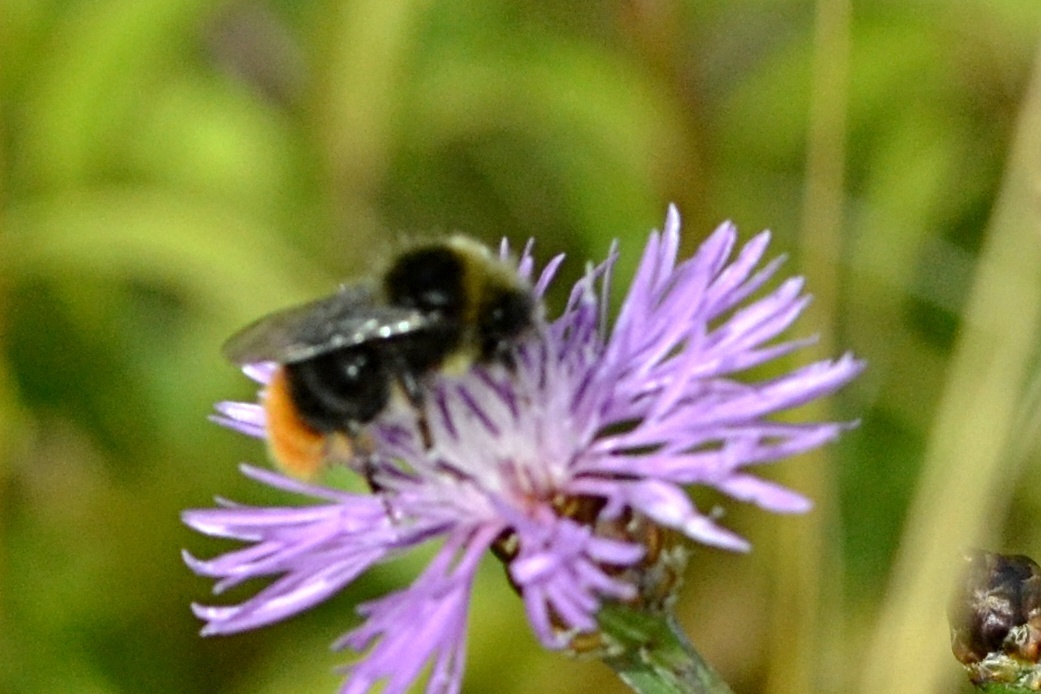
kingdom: Animalia
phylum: Arthropoda
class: Insecta
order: Hymenoptera
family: Apidae
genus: Bombus
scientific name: Bombus lapidarius
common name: Large red-tailed humble-bee
